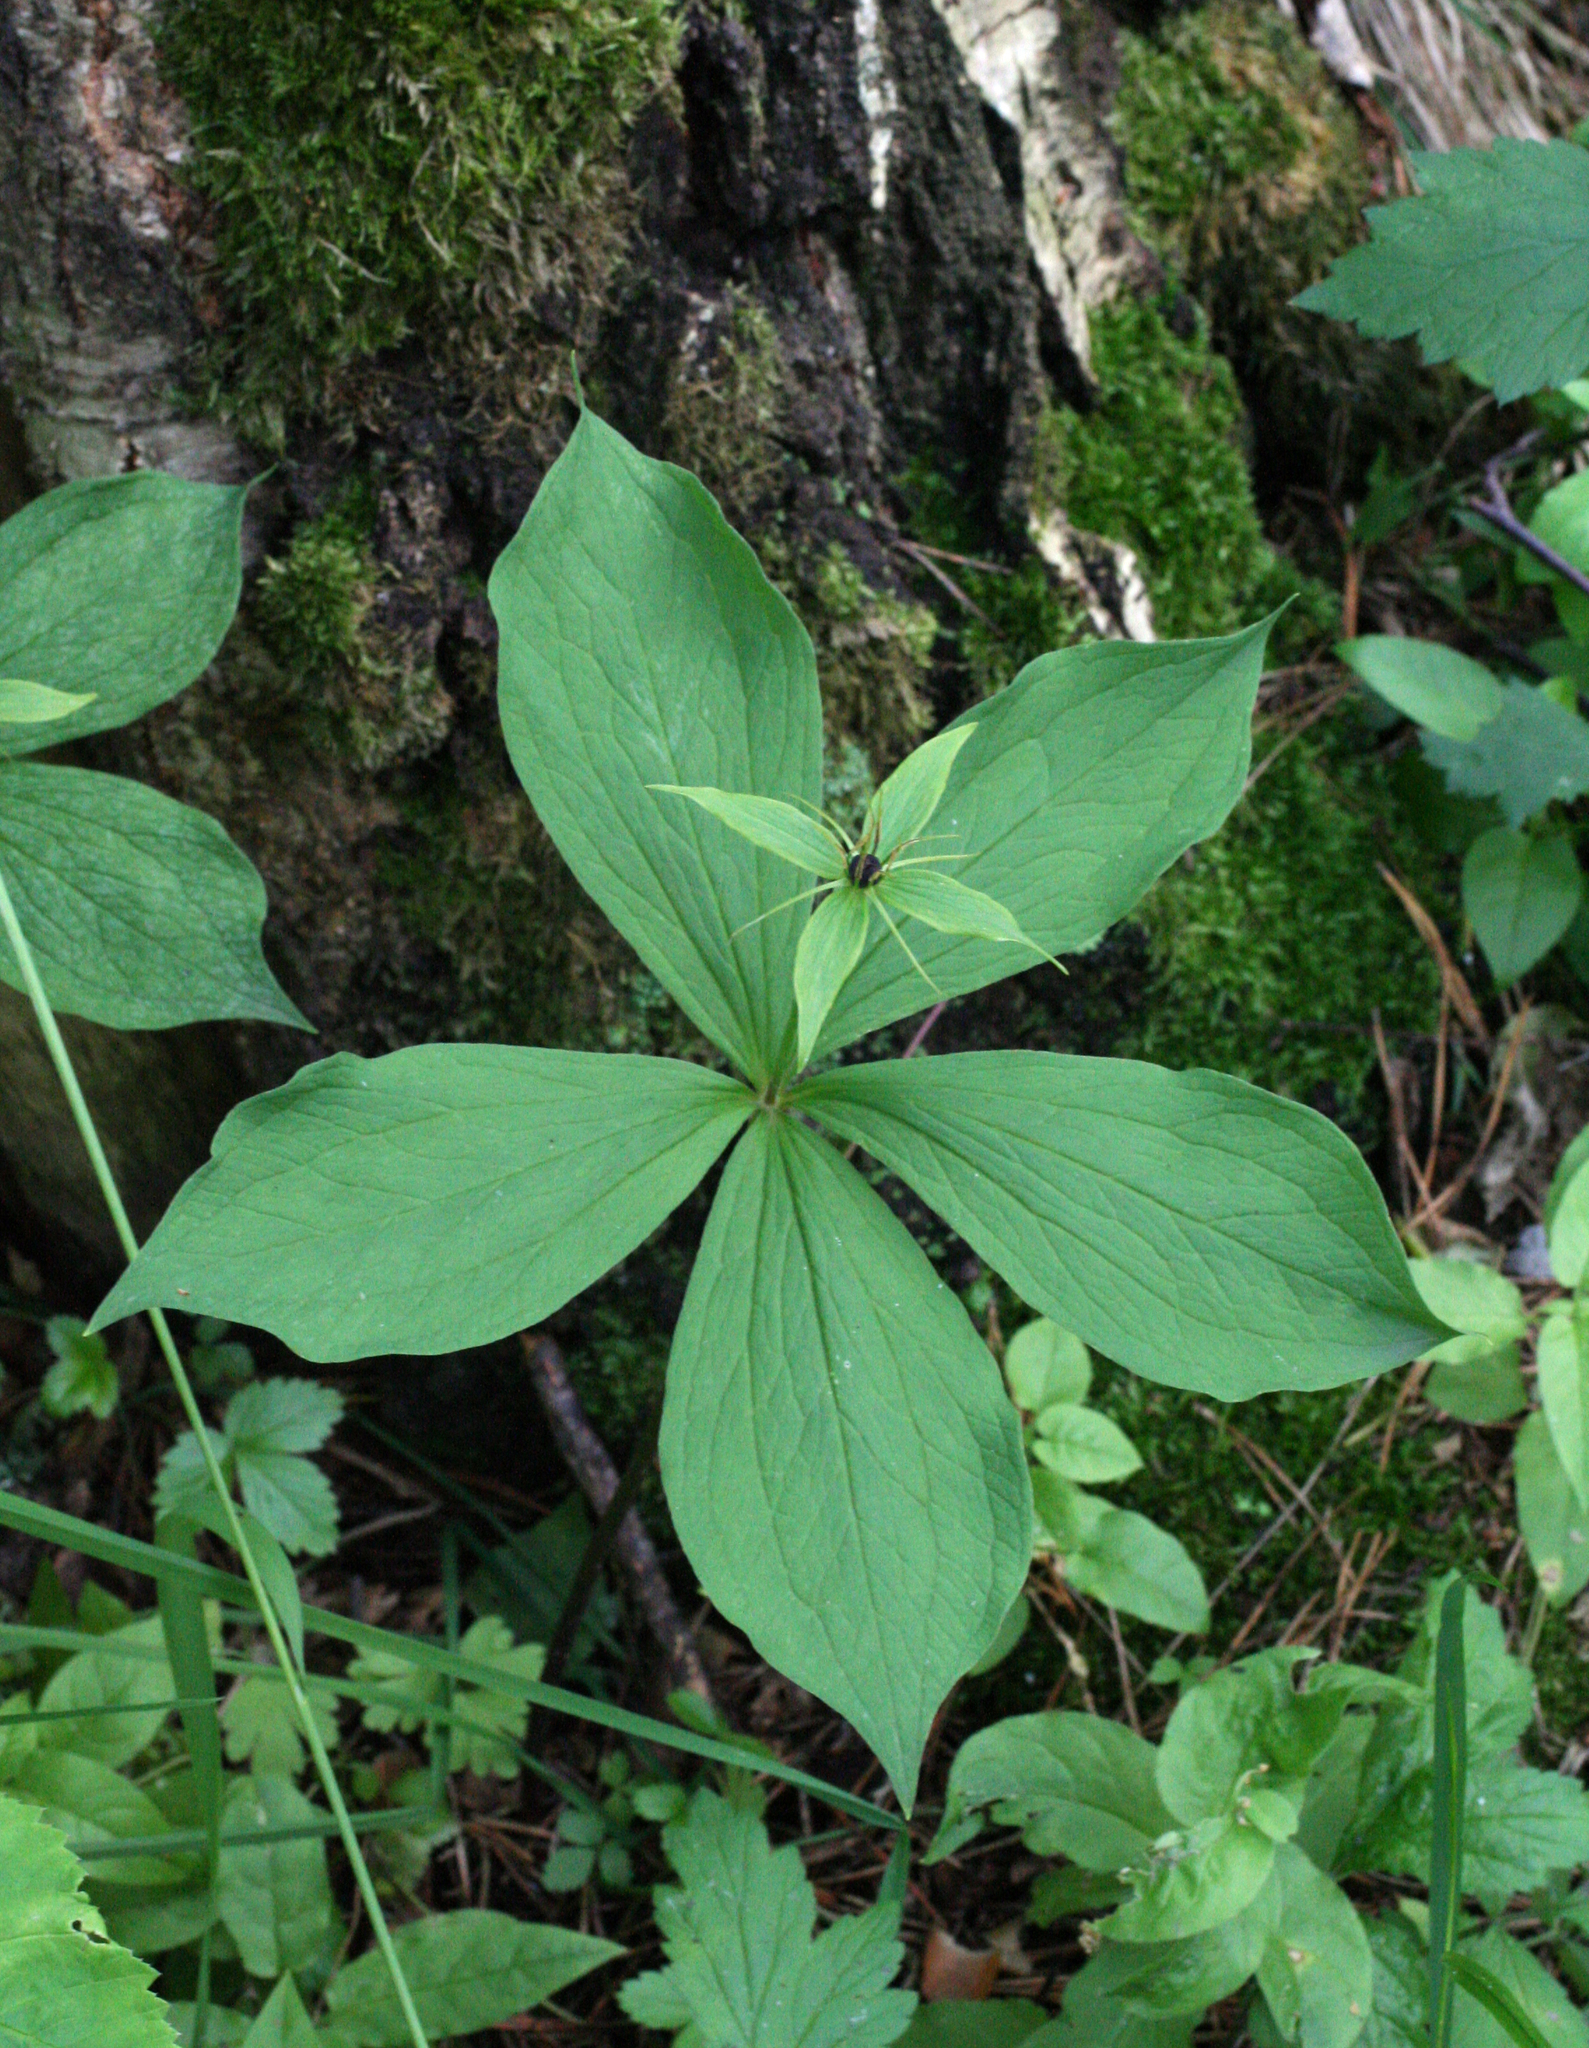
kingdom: Plantae
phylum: Tracheophyta
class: Liliopsida
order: Liliales
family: Melanthiaceae
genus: Paris
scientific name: Paris quadrifolia
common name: Herb-paris
